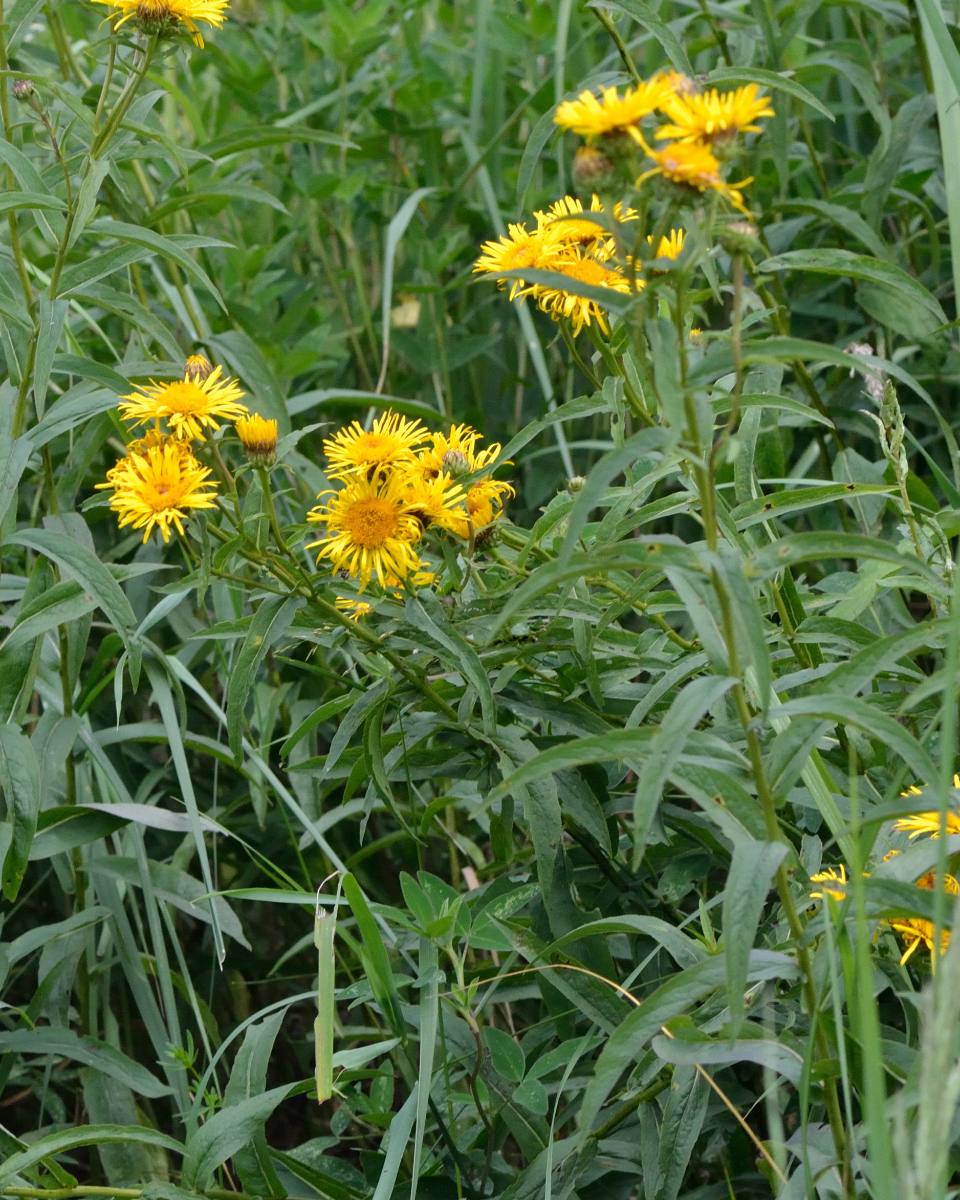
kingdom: Plantae
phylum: Tracheophyta
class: Magnoliopsida
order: Asterales
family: Asteraceae
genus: Pentanema
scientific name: Pentanema salicinum
